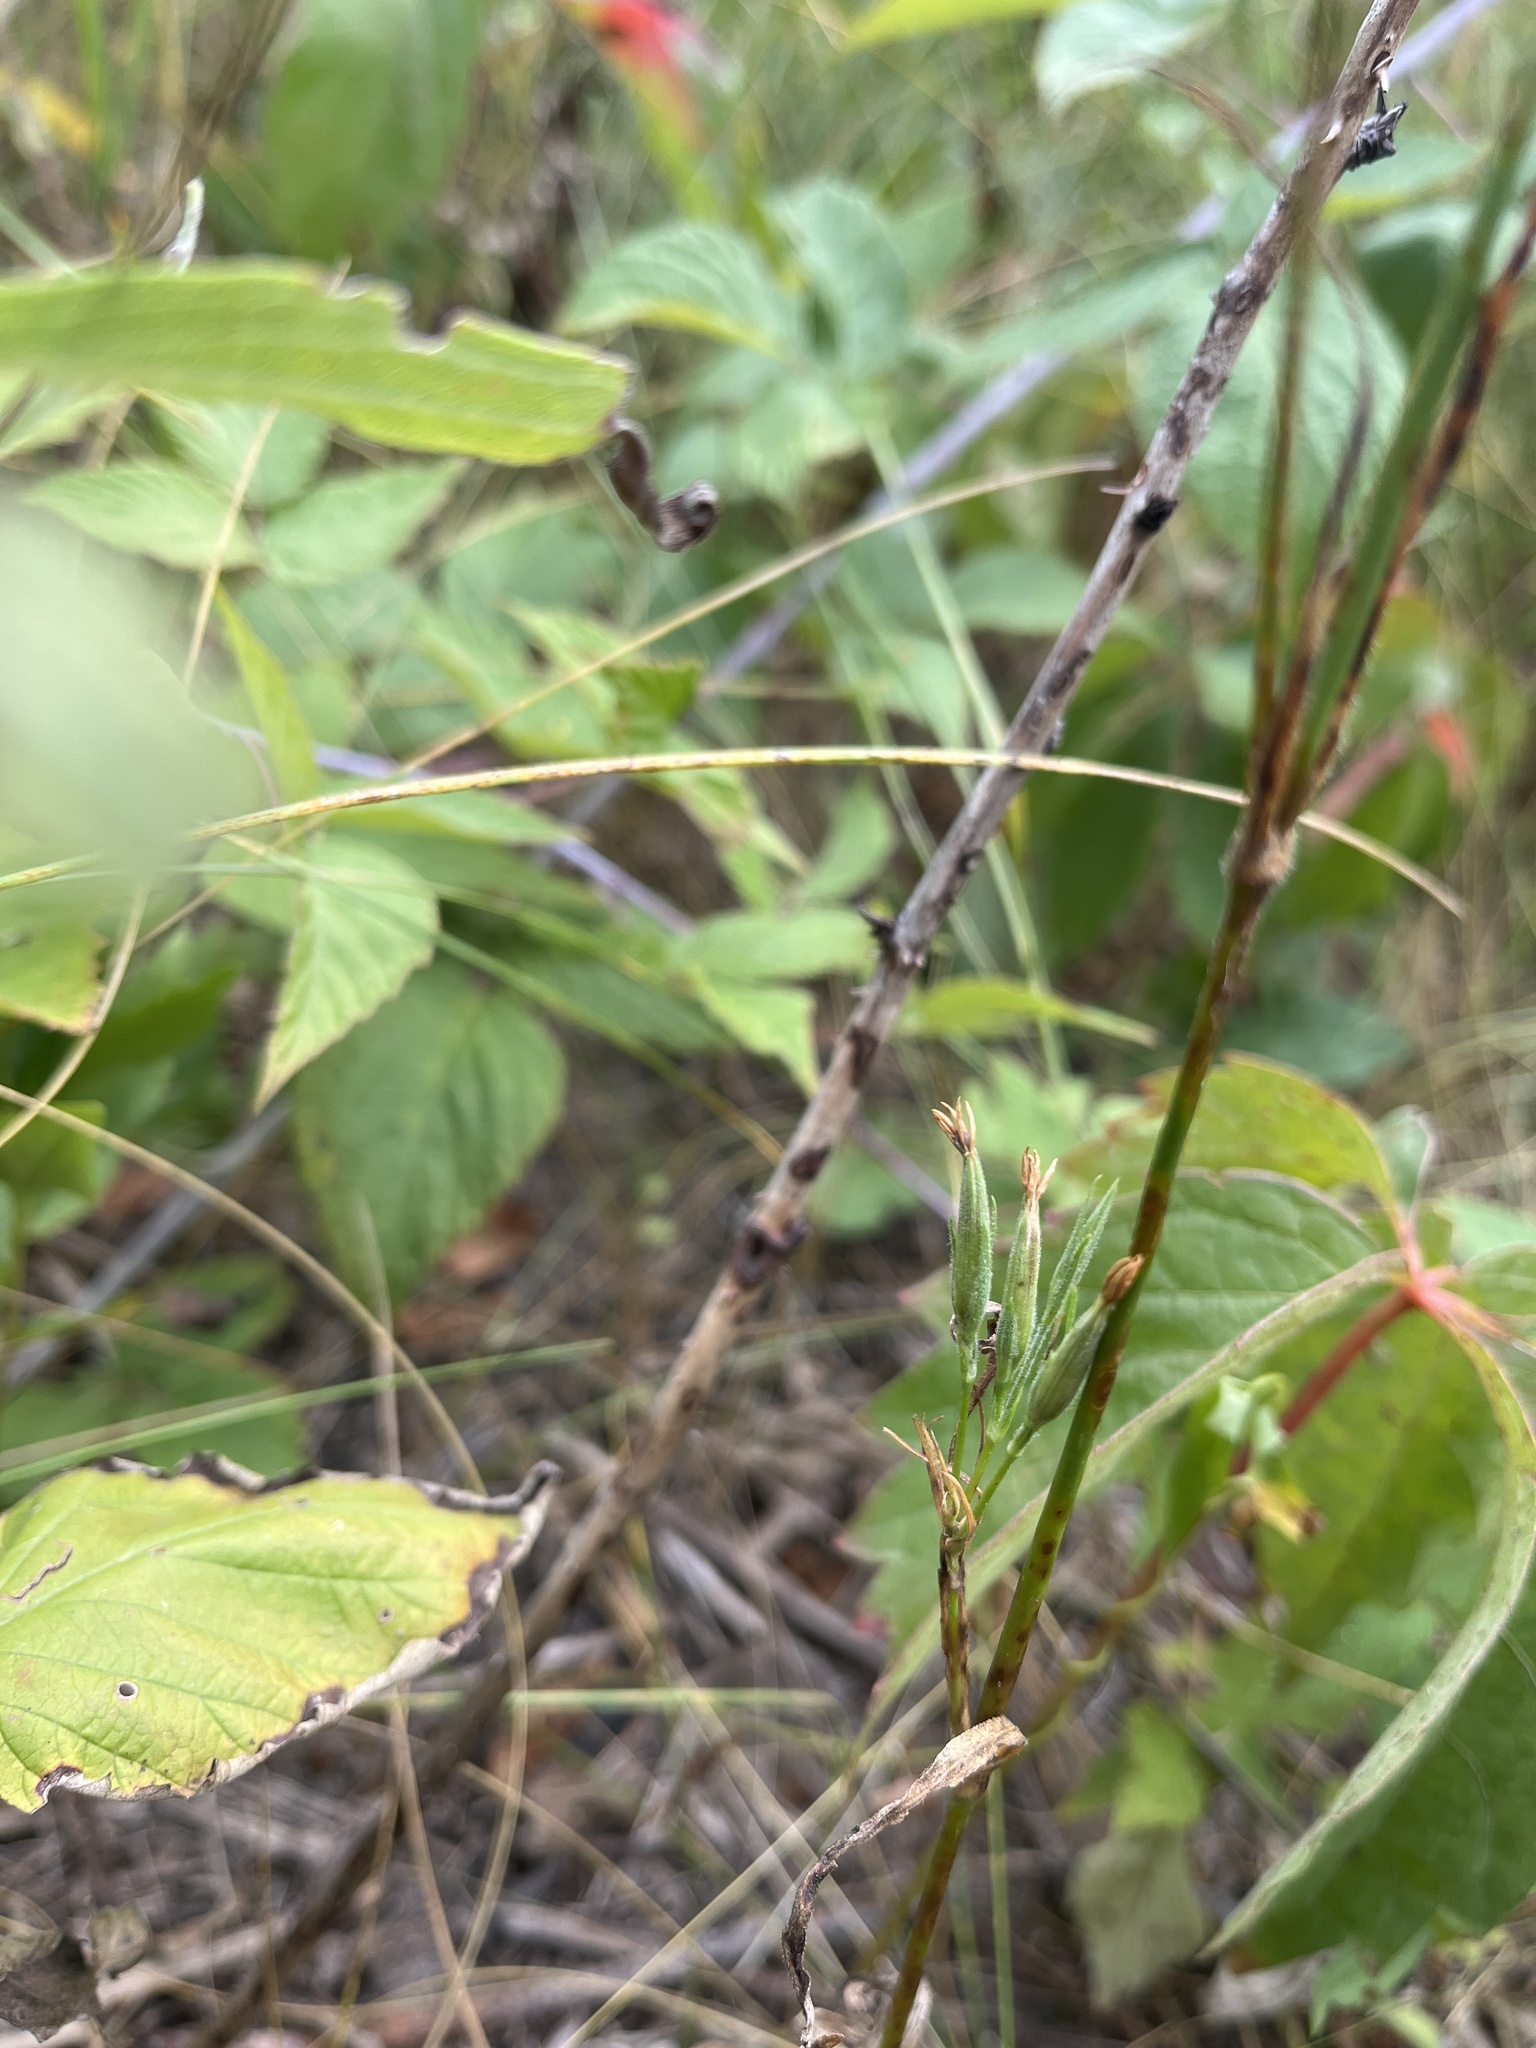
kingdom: Plantae
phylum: Tracheophyta
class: Magnoliopsida
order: Caryophyllales
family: Caryophyllaceae
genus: Dianthus
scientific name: Dianthus armeria
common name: Deptford pink
